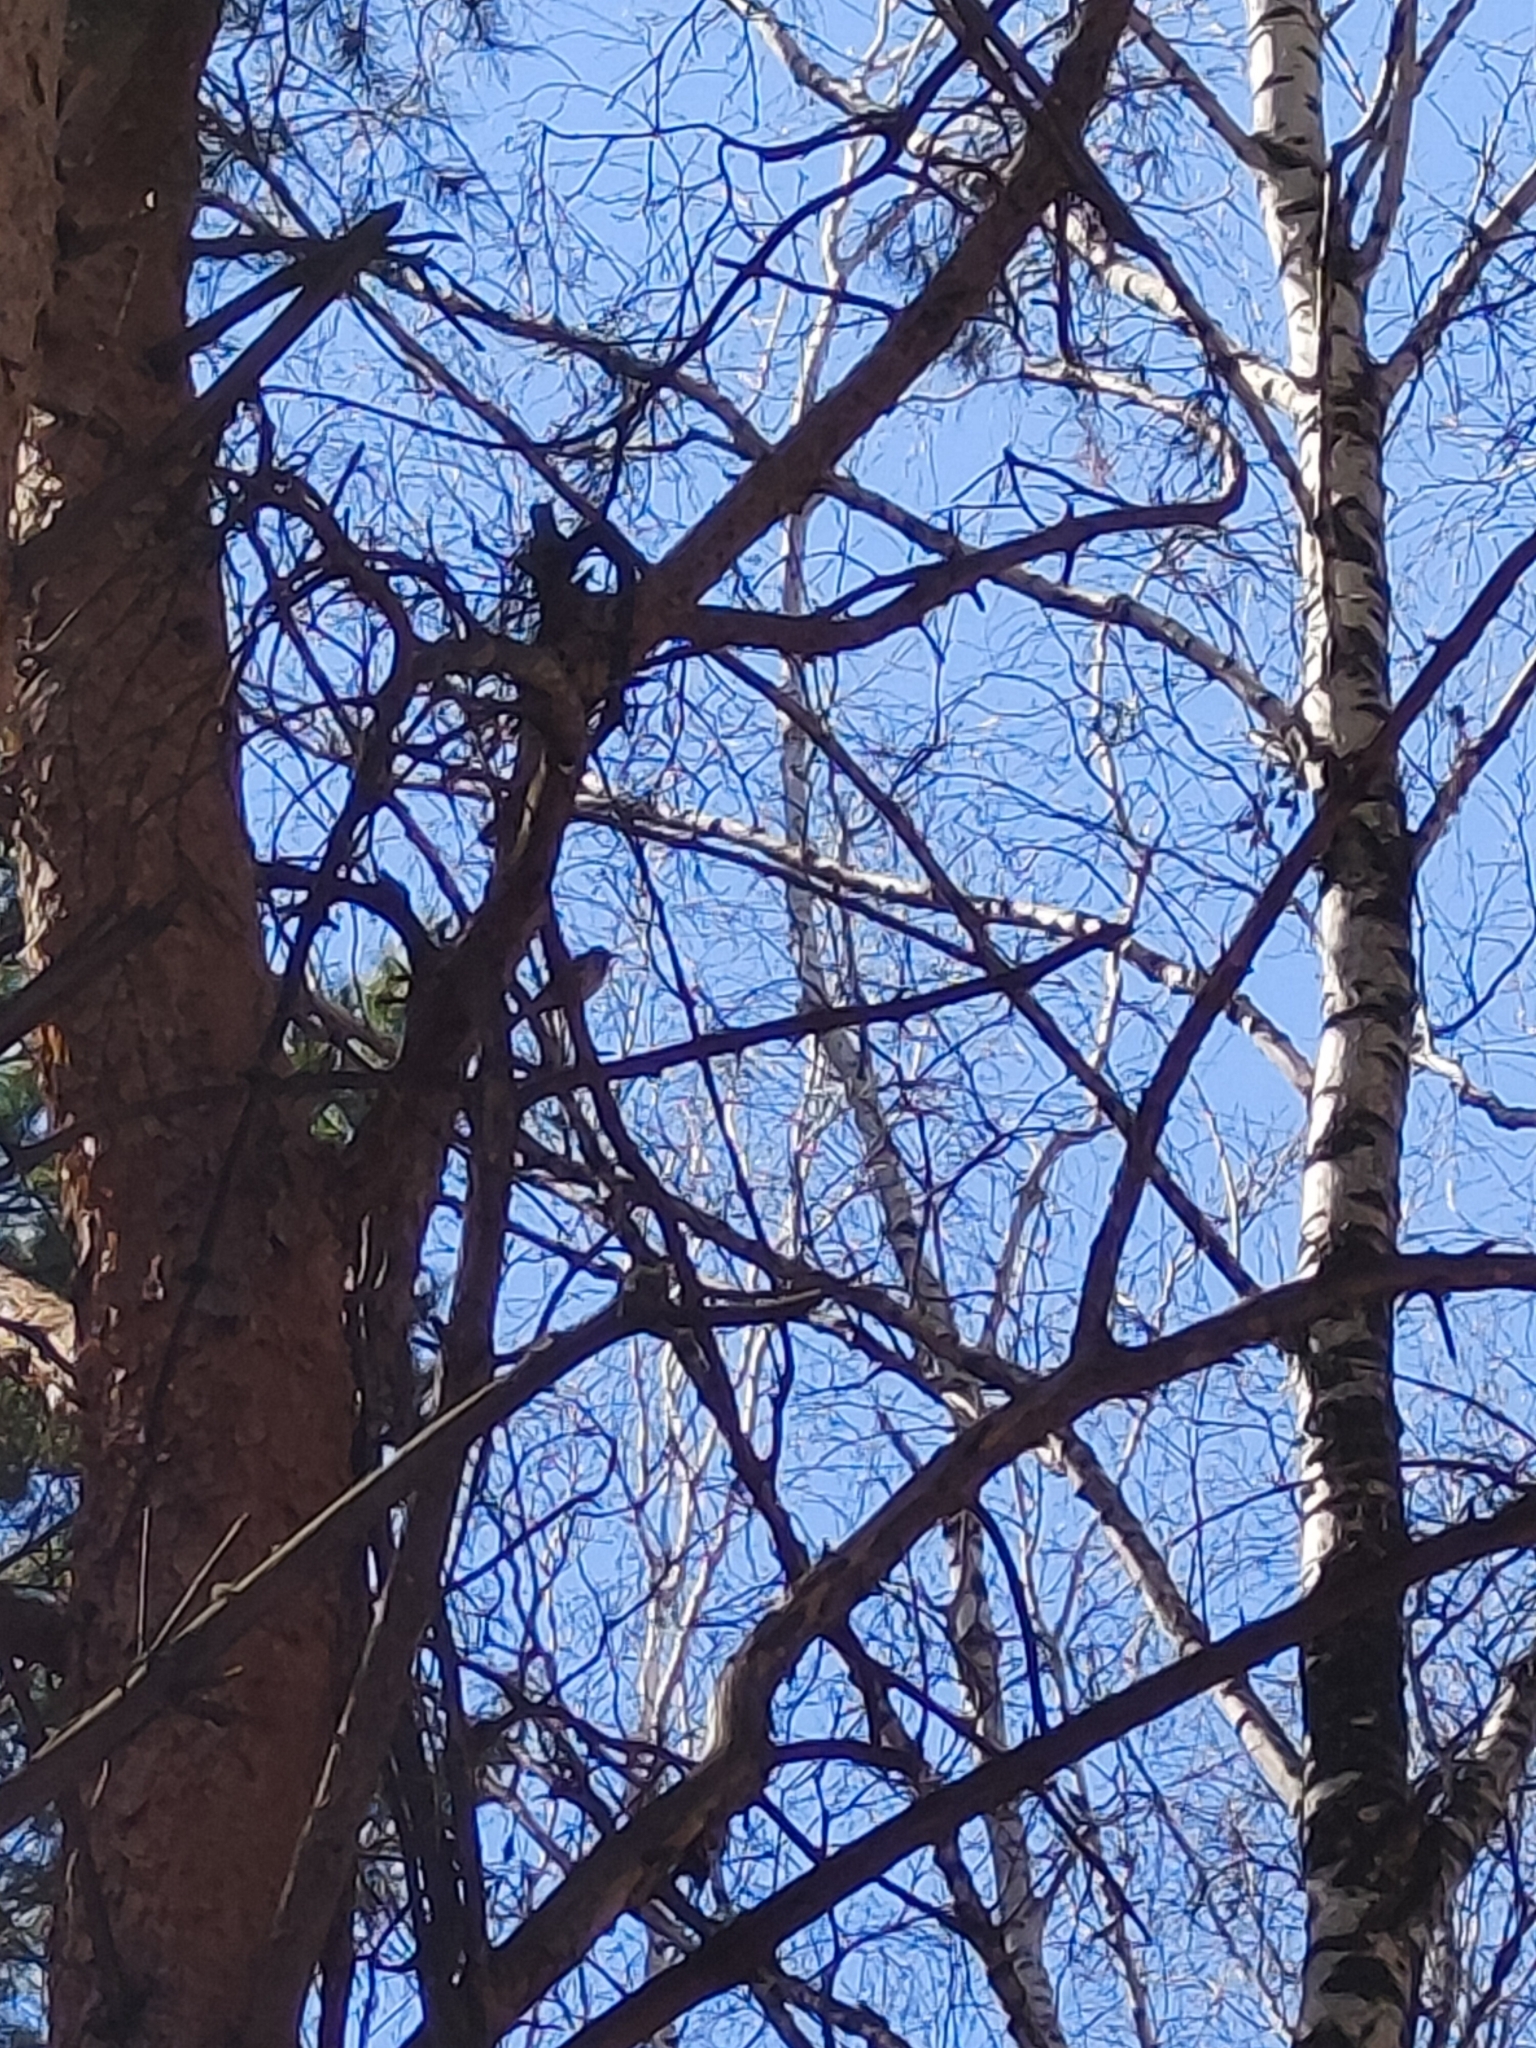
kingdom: Animalia
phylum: Chordata
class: Aves
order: Passeriformes
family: Turdidae
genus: Turdus
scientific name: Turdus iliacus
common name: Redwing
